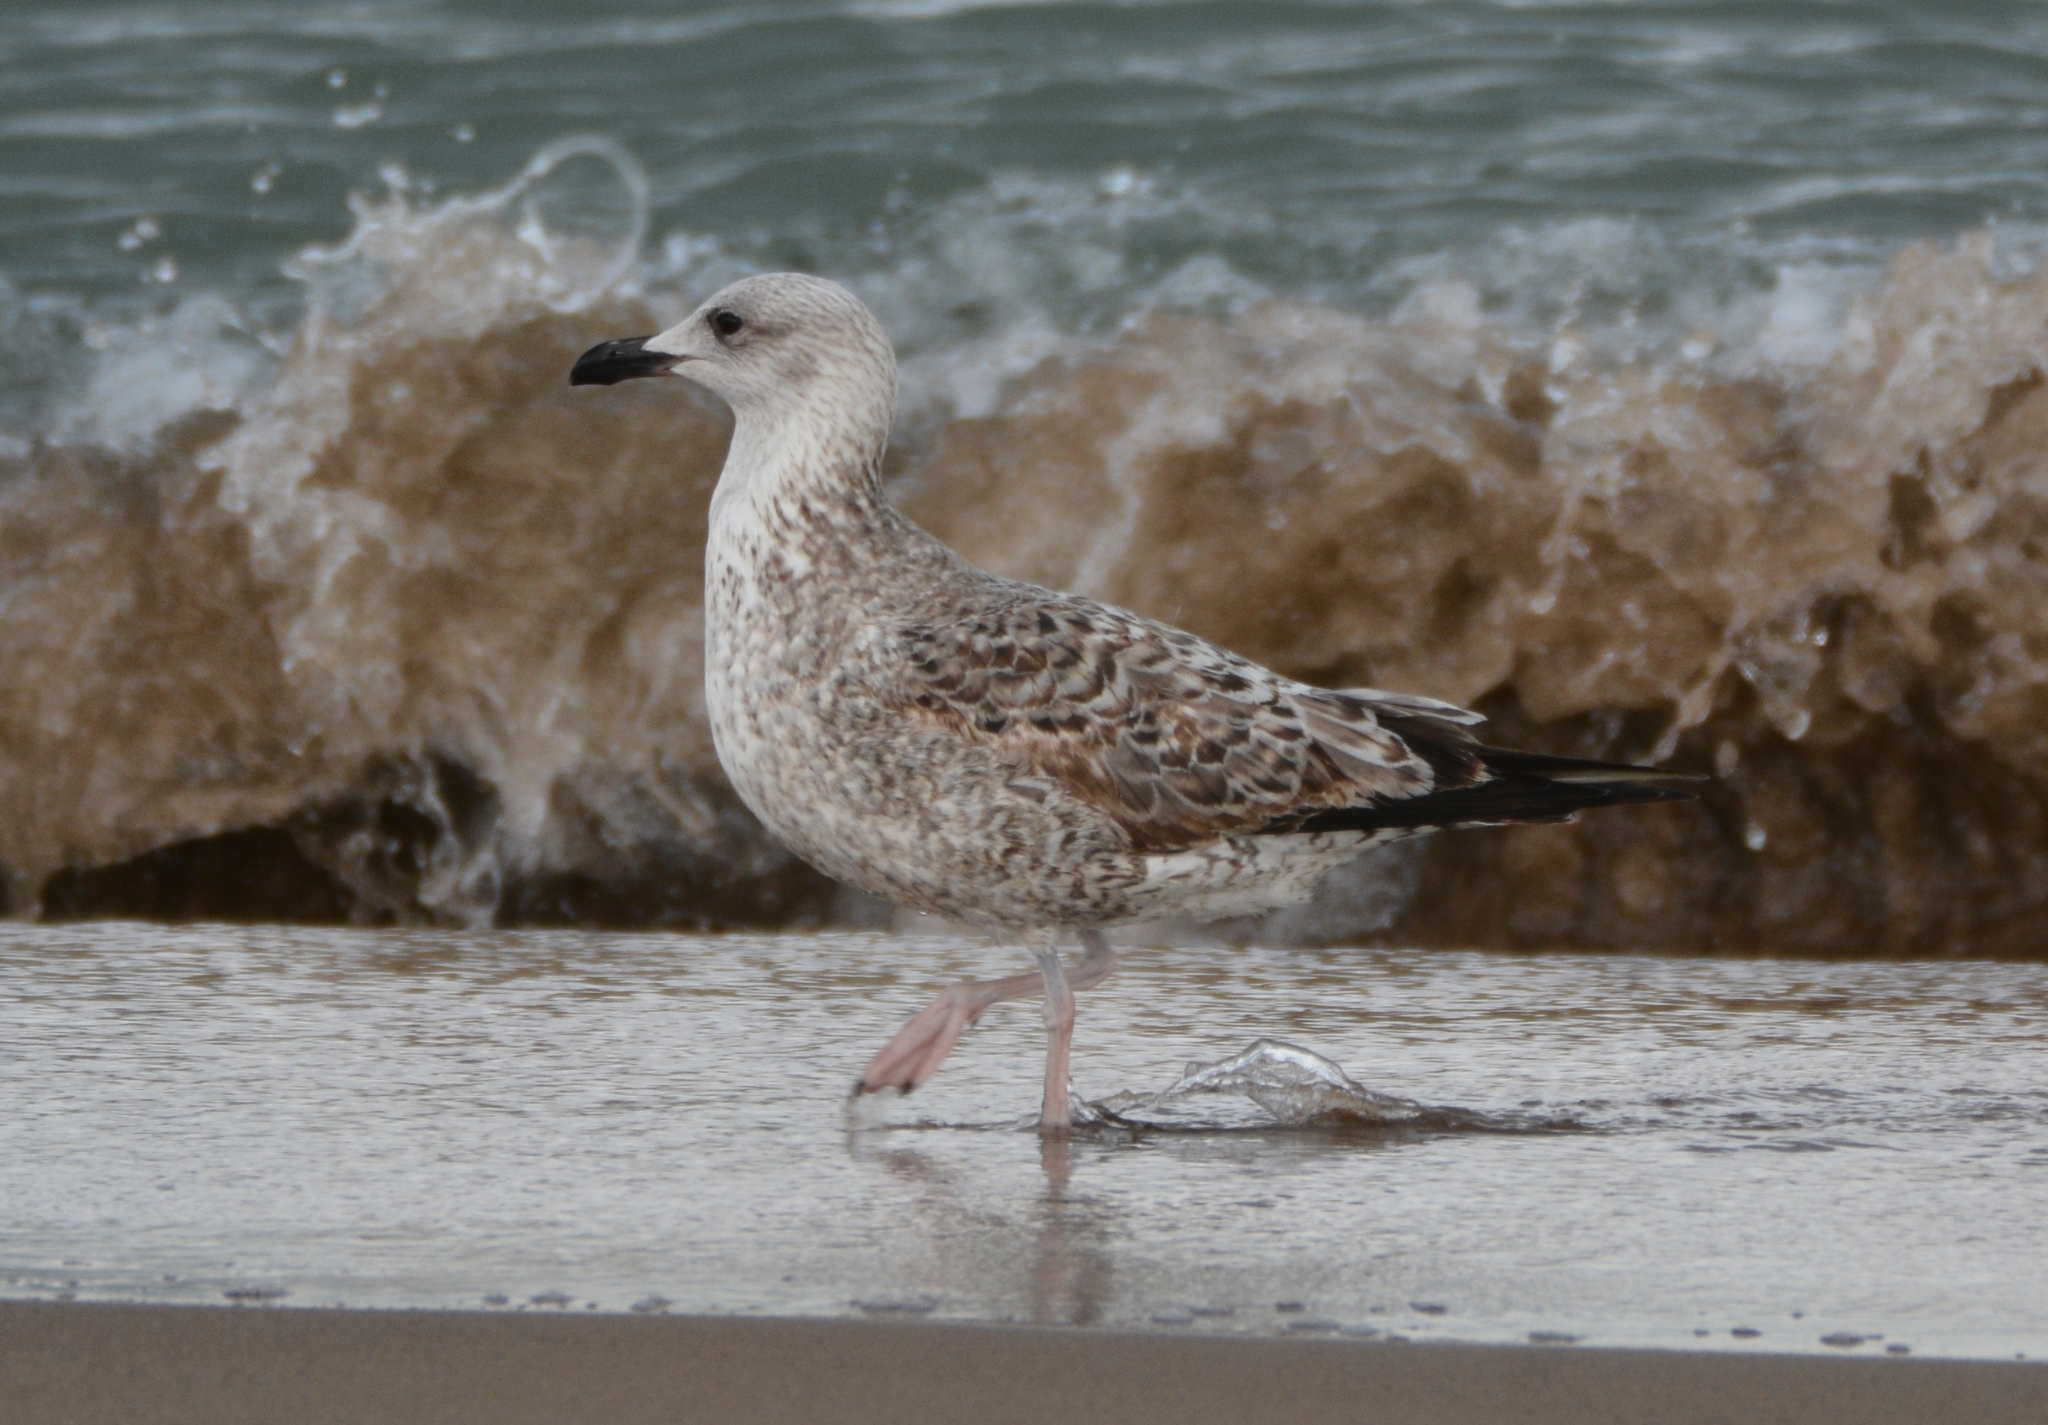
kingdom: Animalia
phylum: Chordata
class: Aves
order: Charadriiformes
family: Laridae
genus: Larus
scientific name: Larus michahellis
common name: Yellow-legged gull
